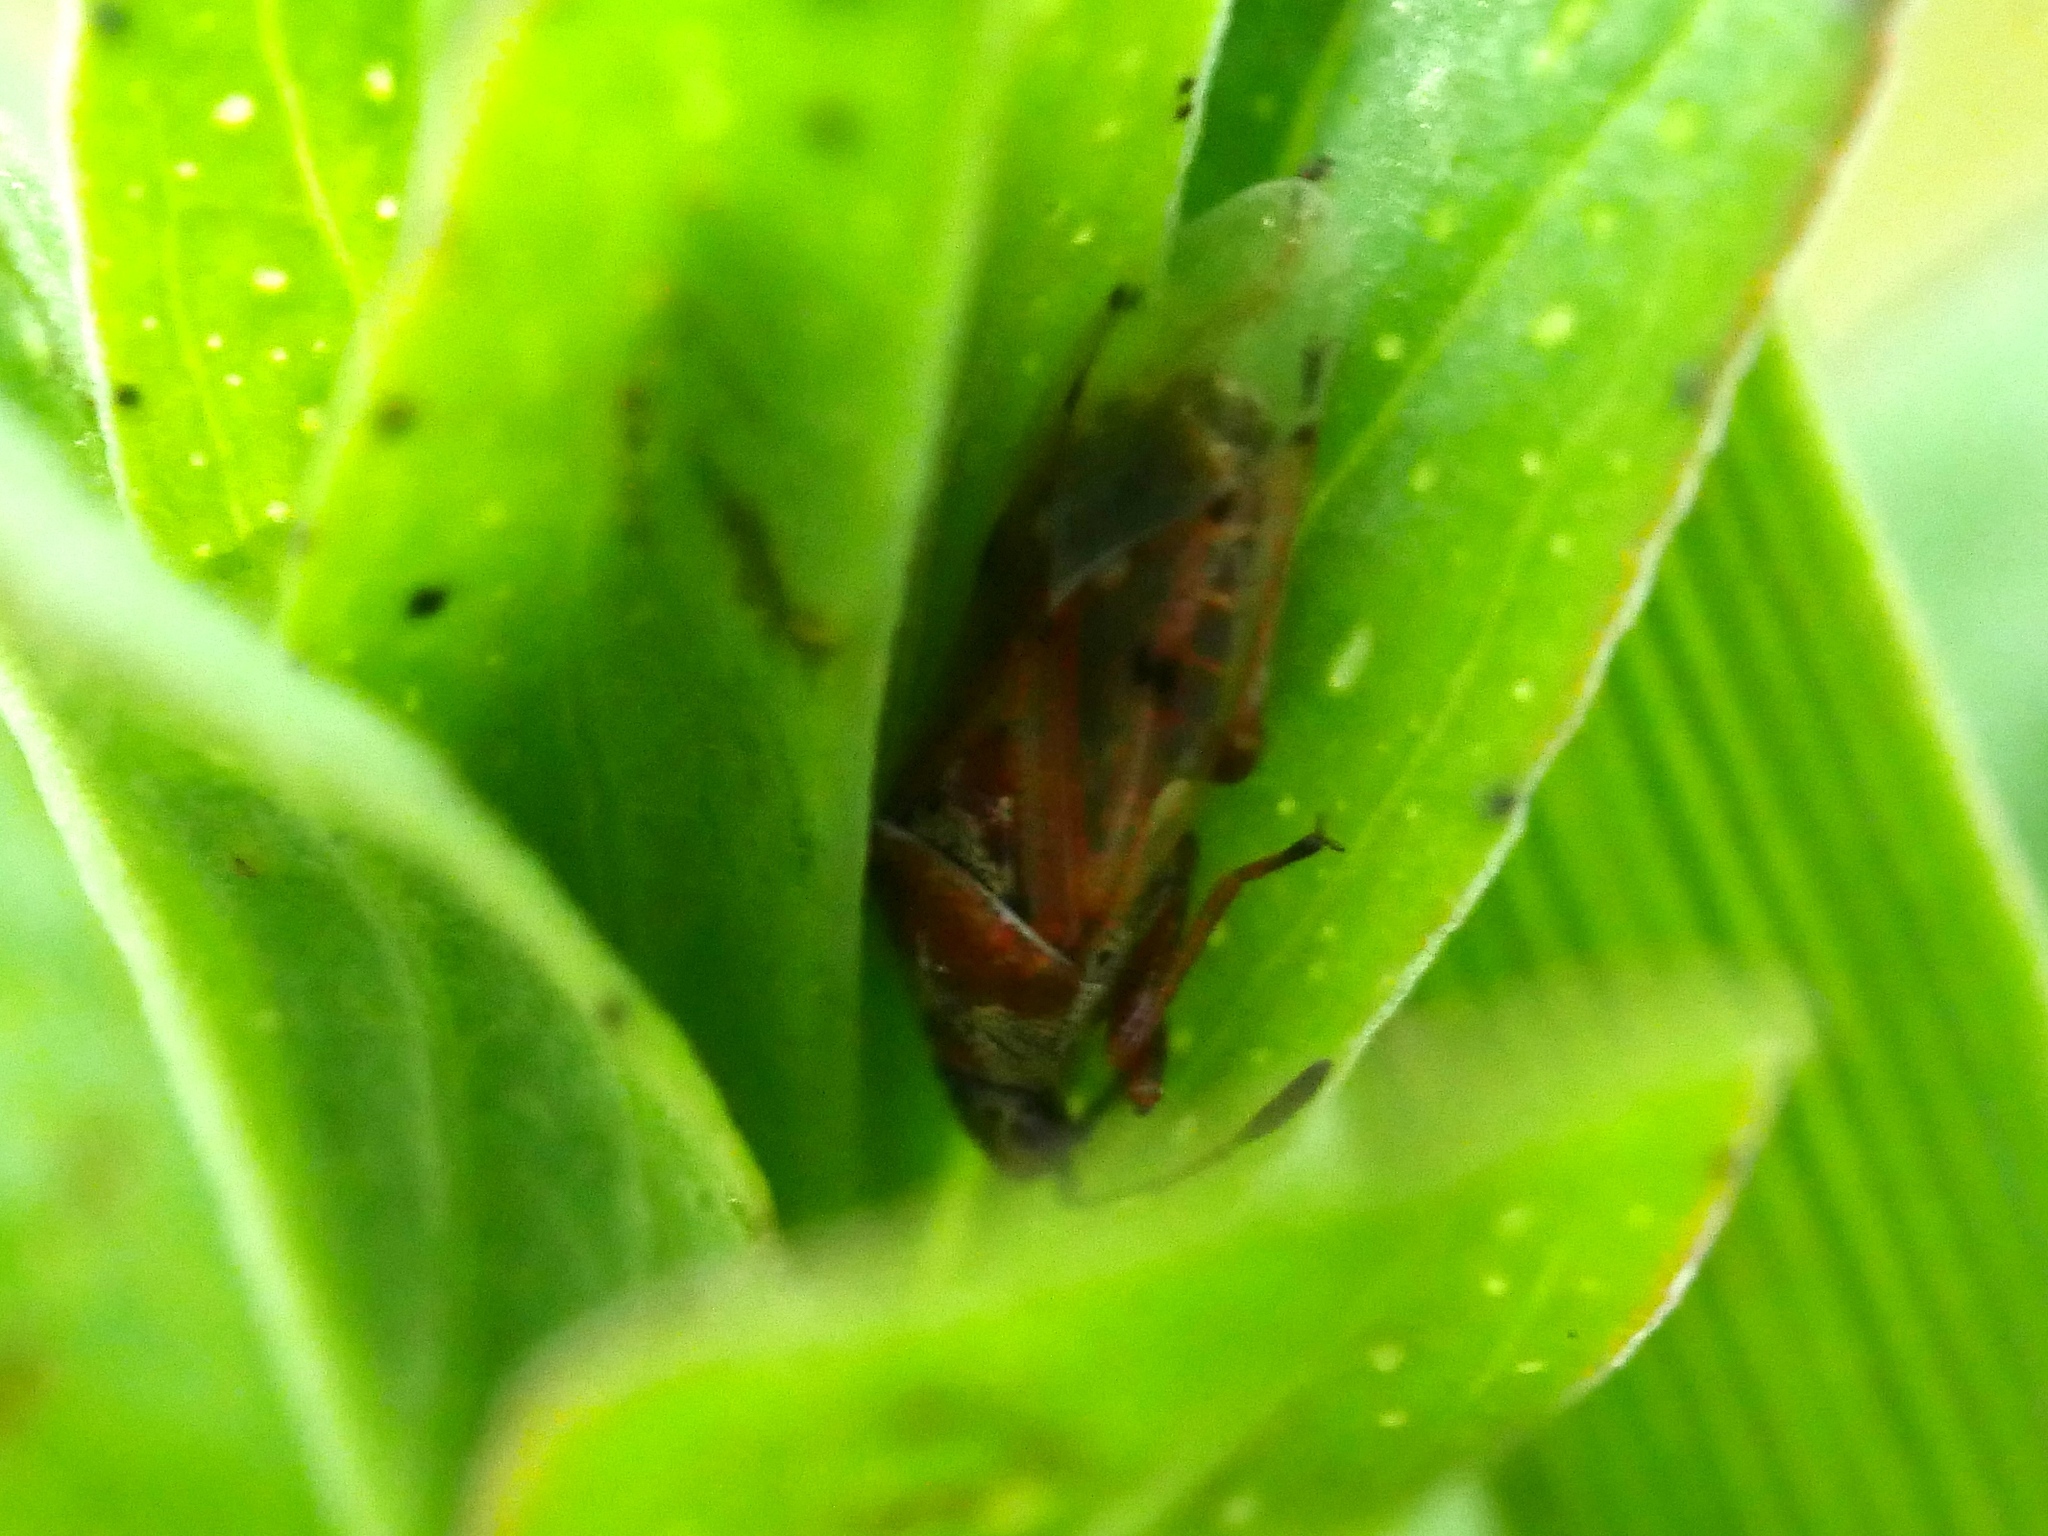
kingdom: Animalia
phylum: Arthropoda
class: Insecta
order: Hemiptera
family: Lygaeidae
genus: Kleidocerys
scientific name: Kleidocerys resedae
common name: Birch catkin bug
